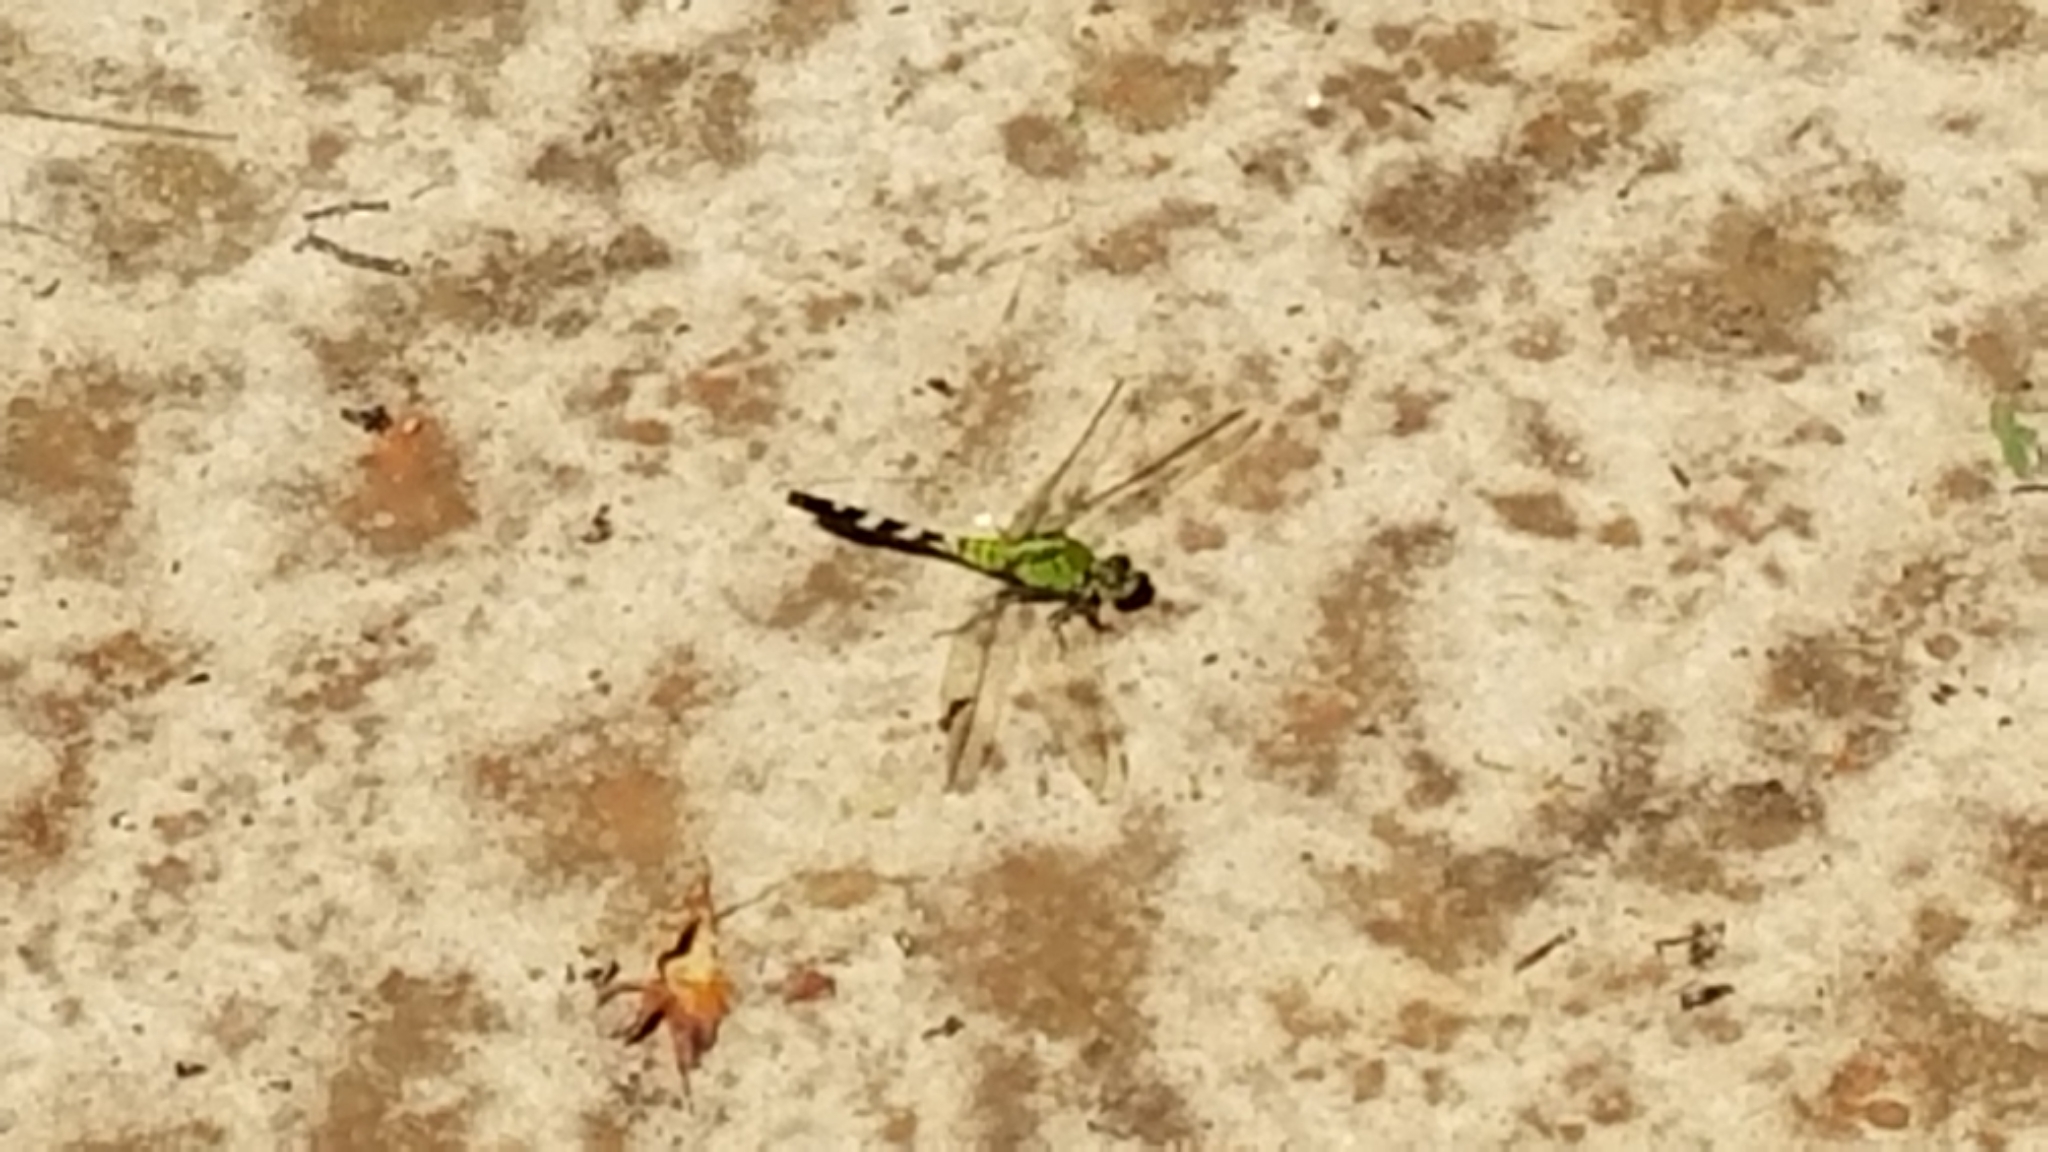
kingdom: Animalia
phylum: Arthropoda
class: Insecta
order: Odonata
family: Libellulidae
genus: Erythemis
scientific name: Erythemis simplicicollis
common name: Eastern pondhawk
